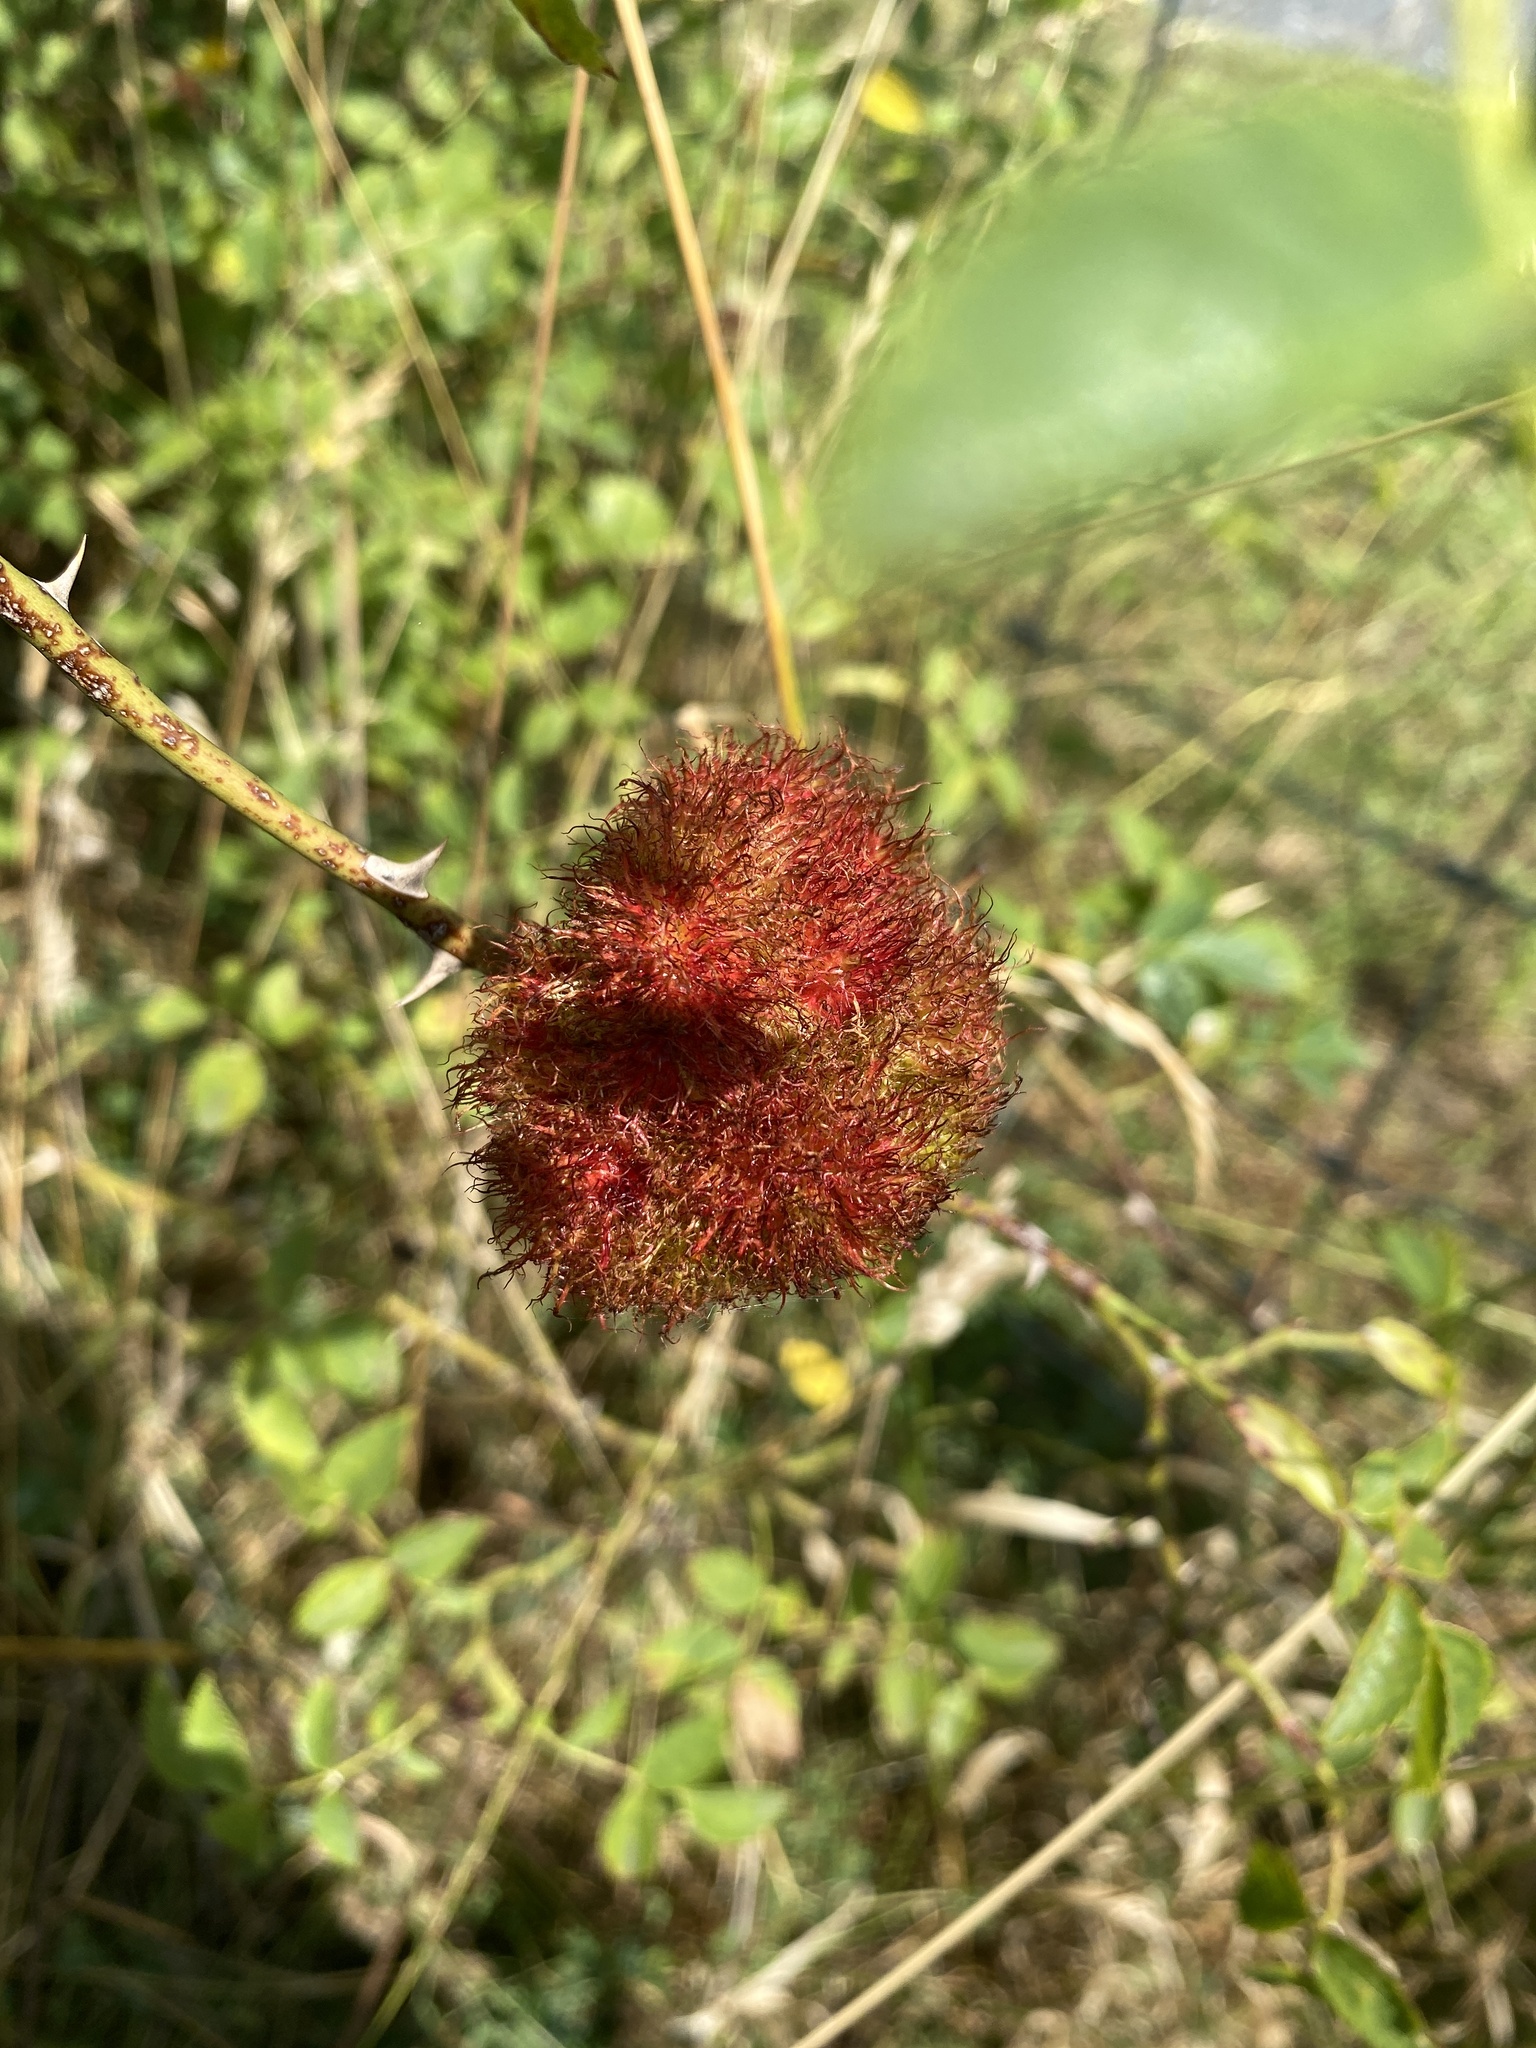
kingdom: Animalia
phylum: Arthropoda
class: Insecta
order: Hymenoptera
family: Cynipidae
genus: Diplolepis
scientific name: Diplolepis rosae
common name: Bedeguar gall
